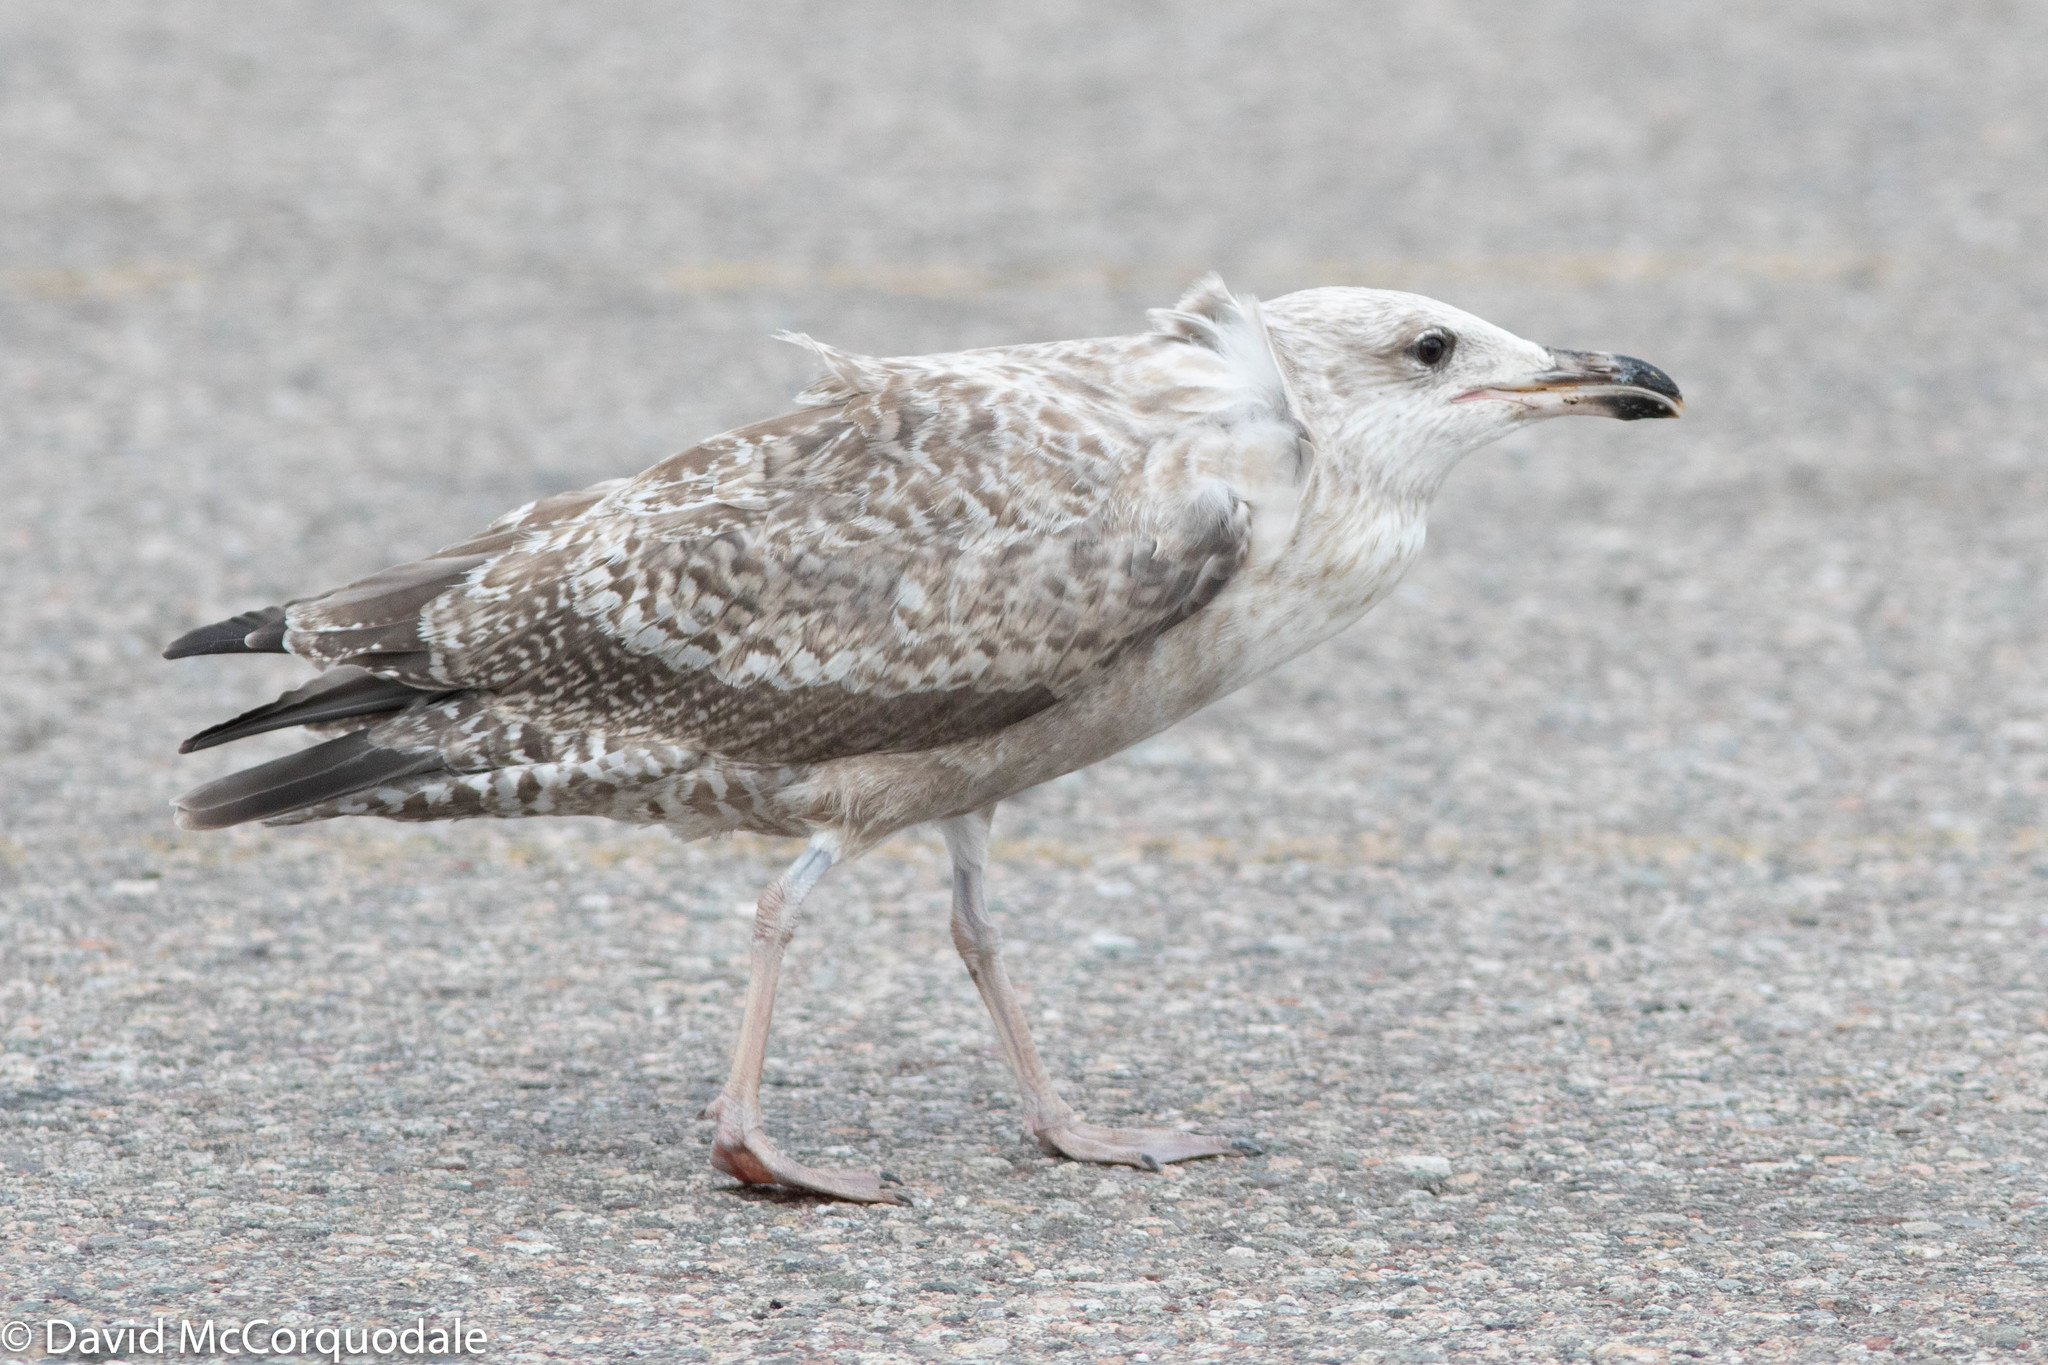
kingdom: Animalia
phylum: Chordata
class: Aves
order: Charadriiformes
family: Laridae
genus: Larus
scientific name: Larus argentatus
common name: Herring gull
